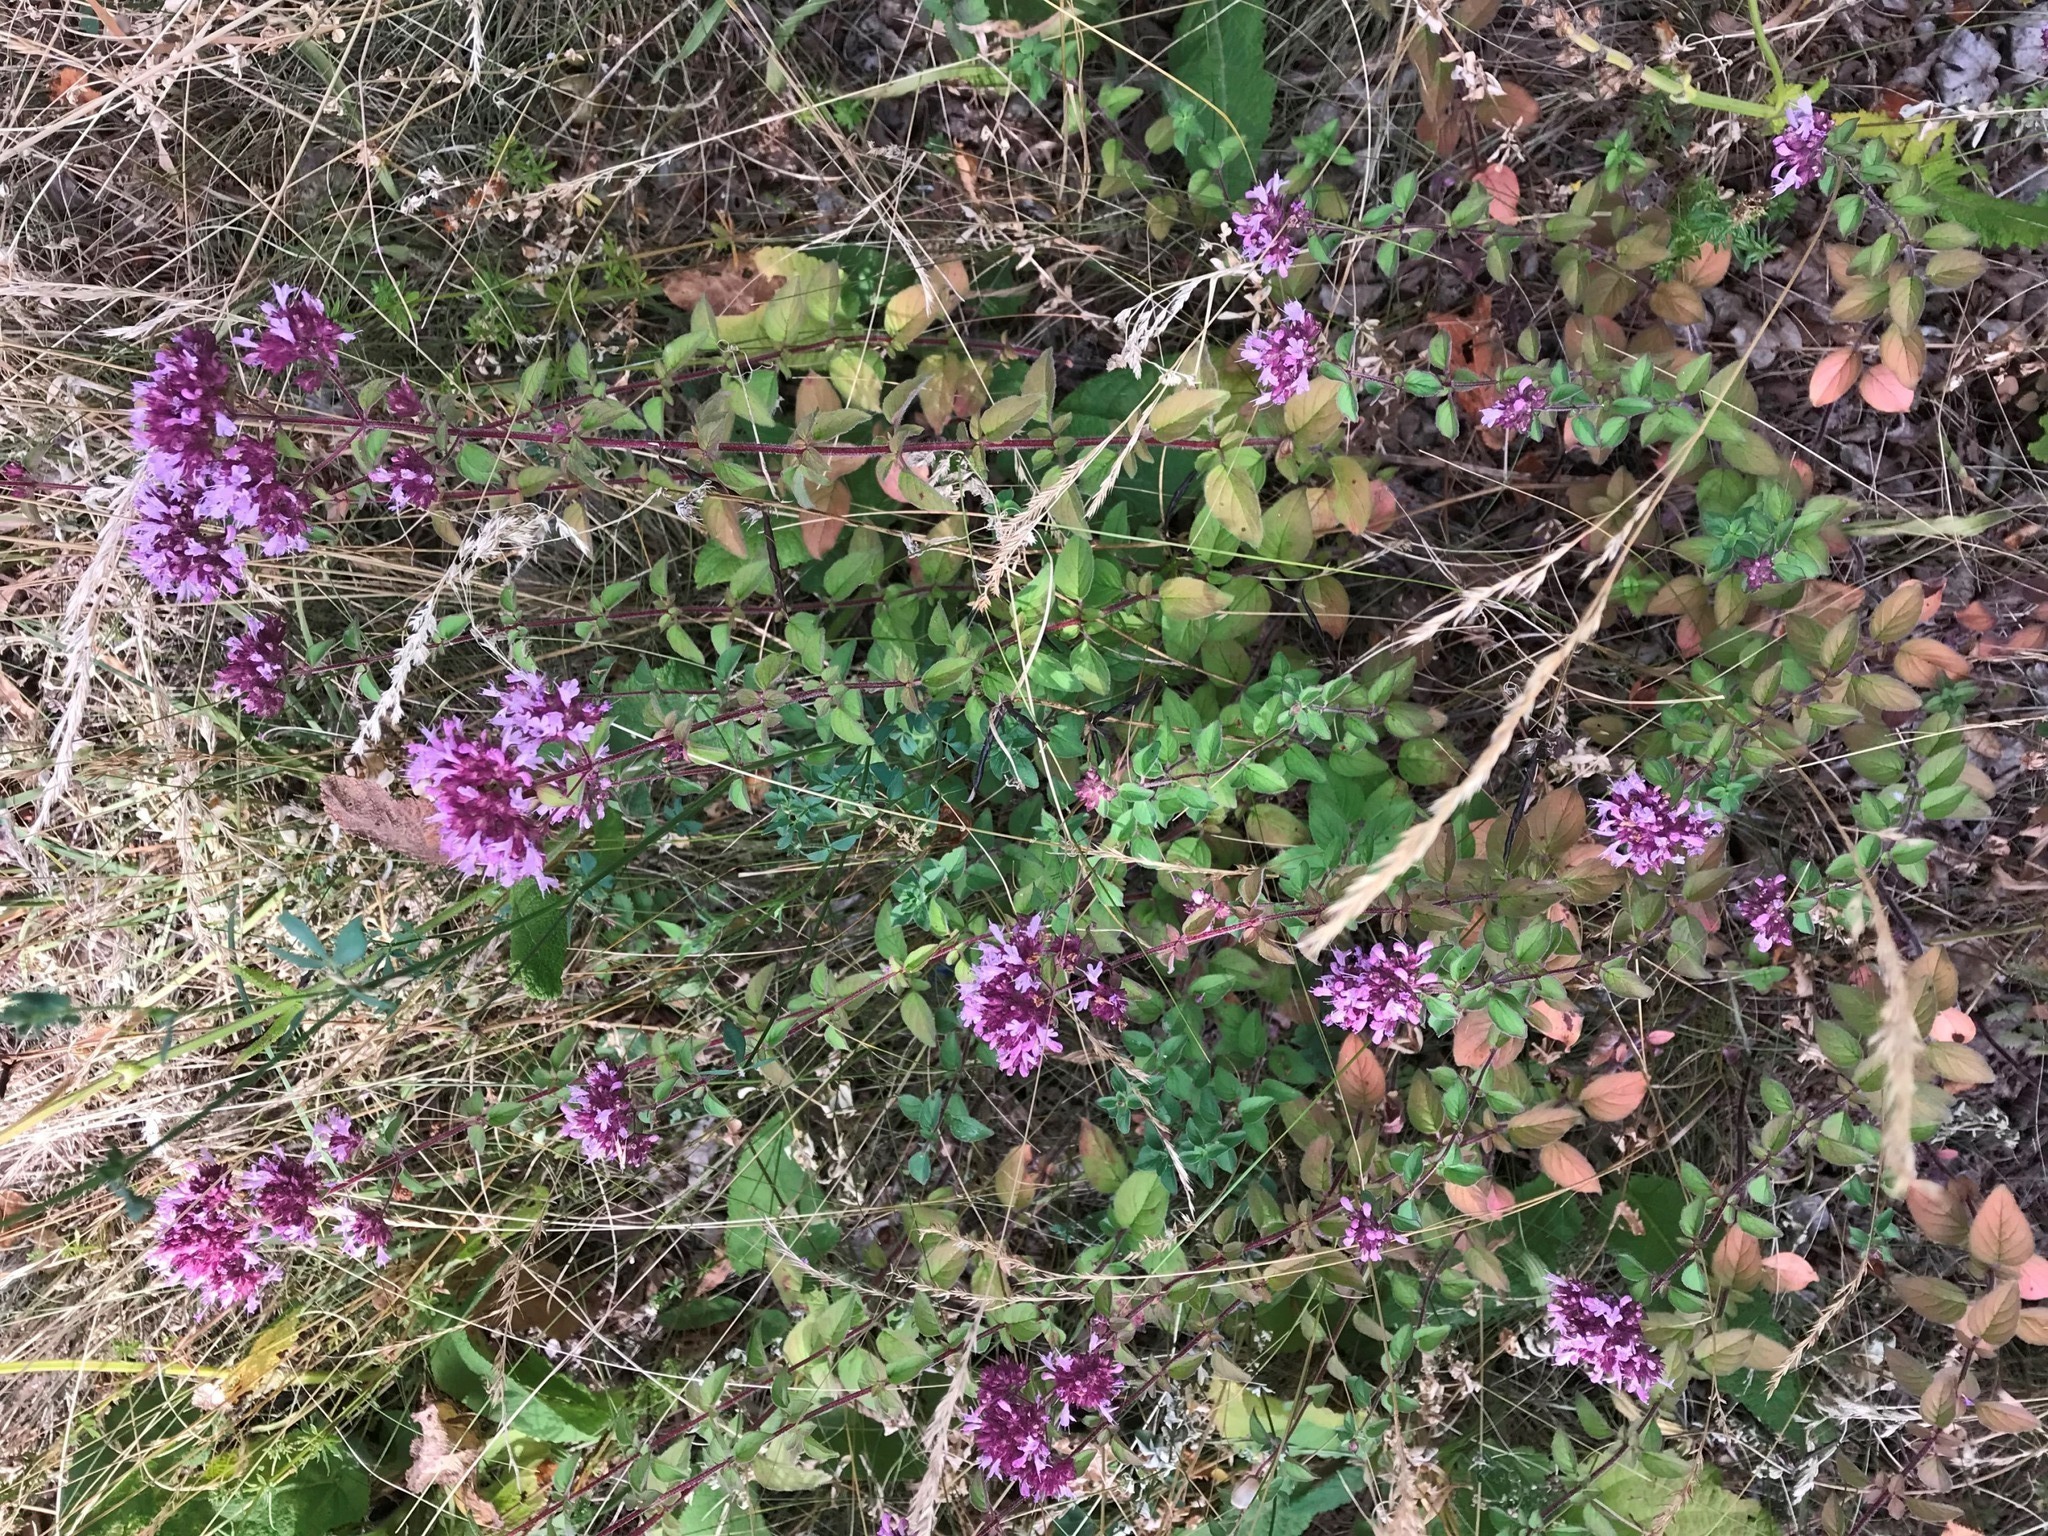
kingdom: Plantae
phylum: Tracheophyta
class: Magnoliopsida
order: Lamiales
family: Lamiaceae
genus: Origanum
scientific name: Origanum vulgare
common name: Wild marjoram
